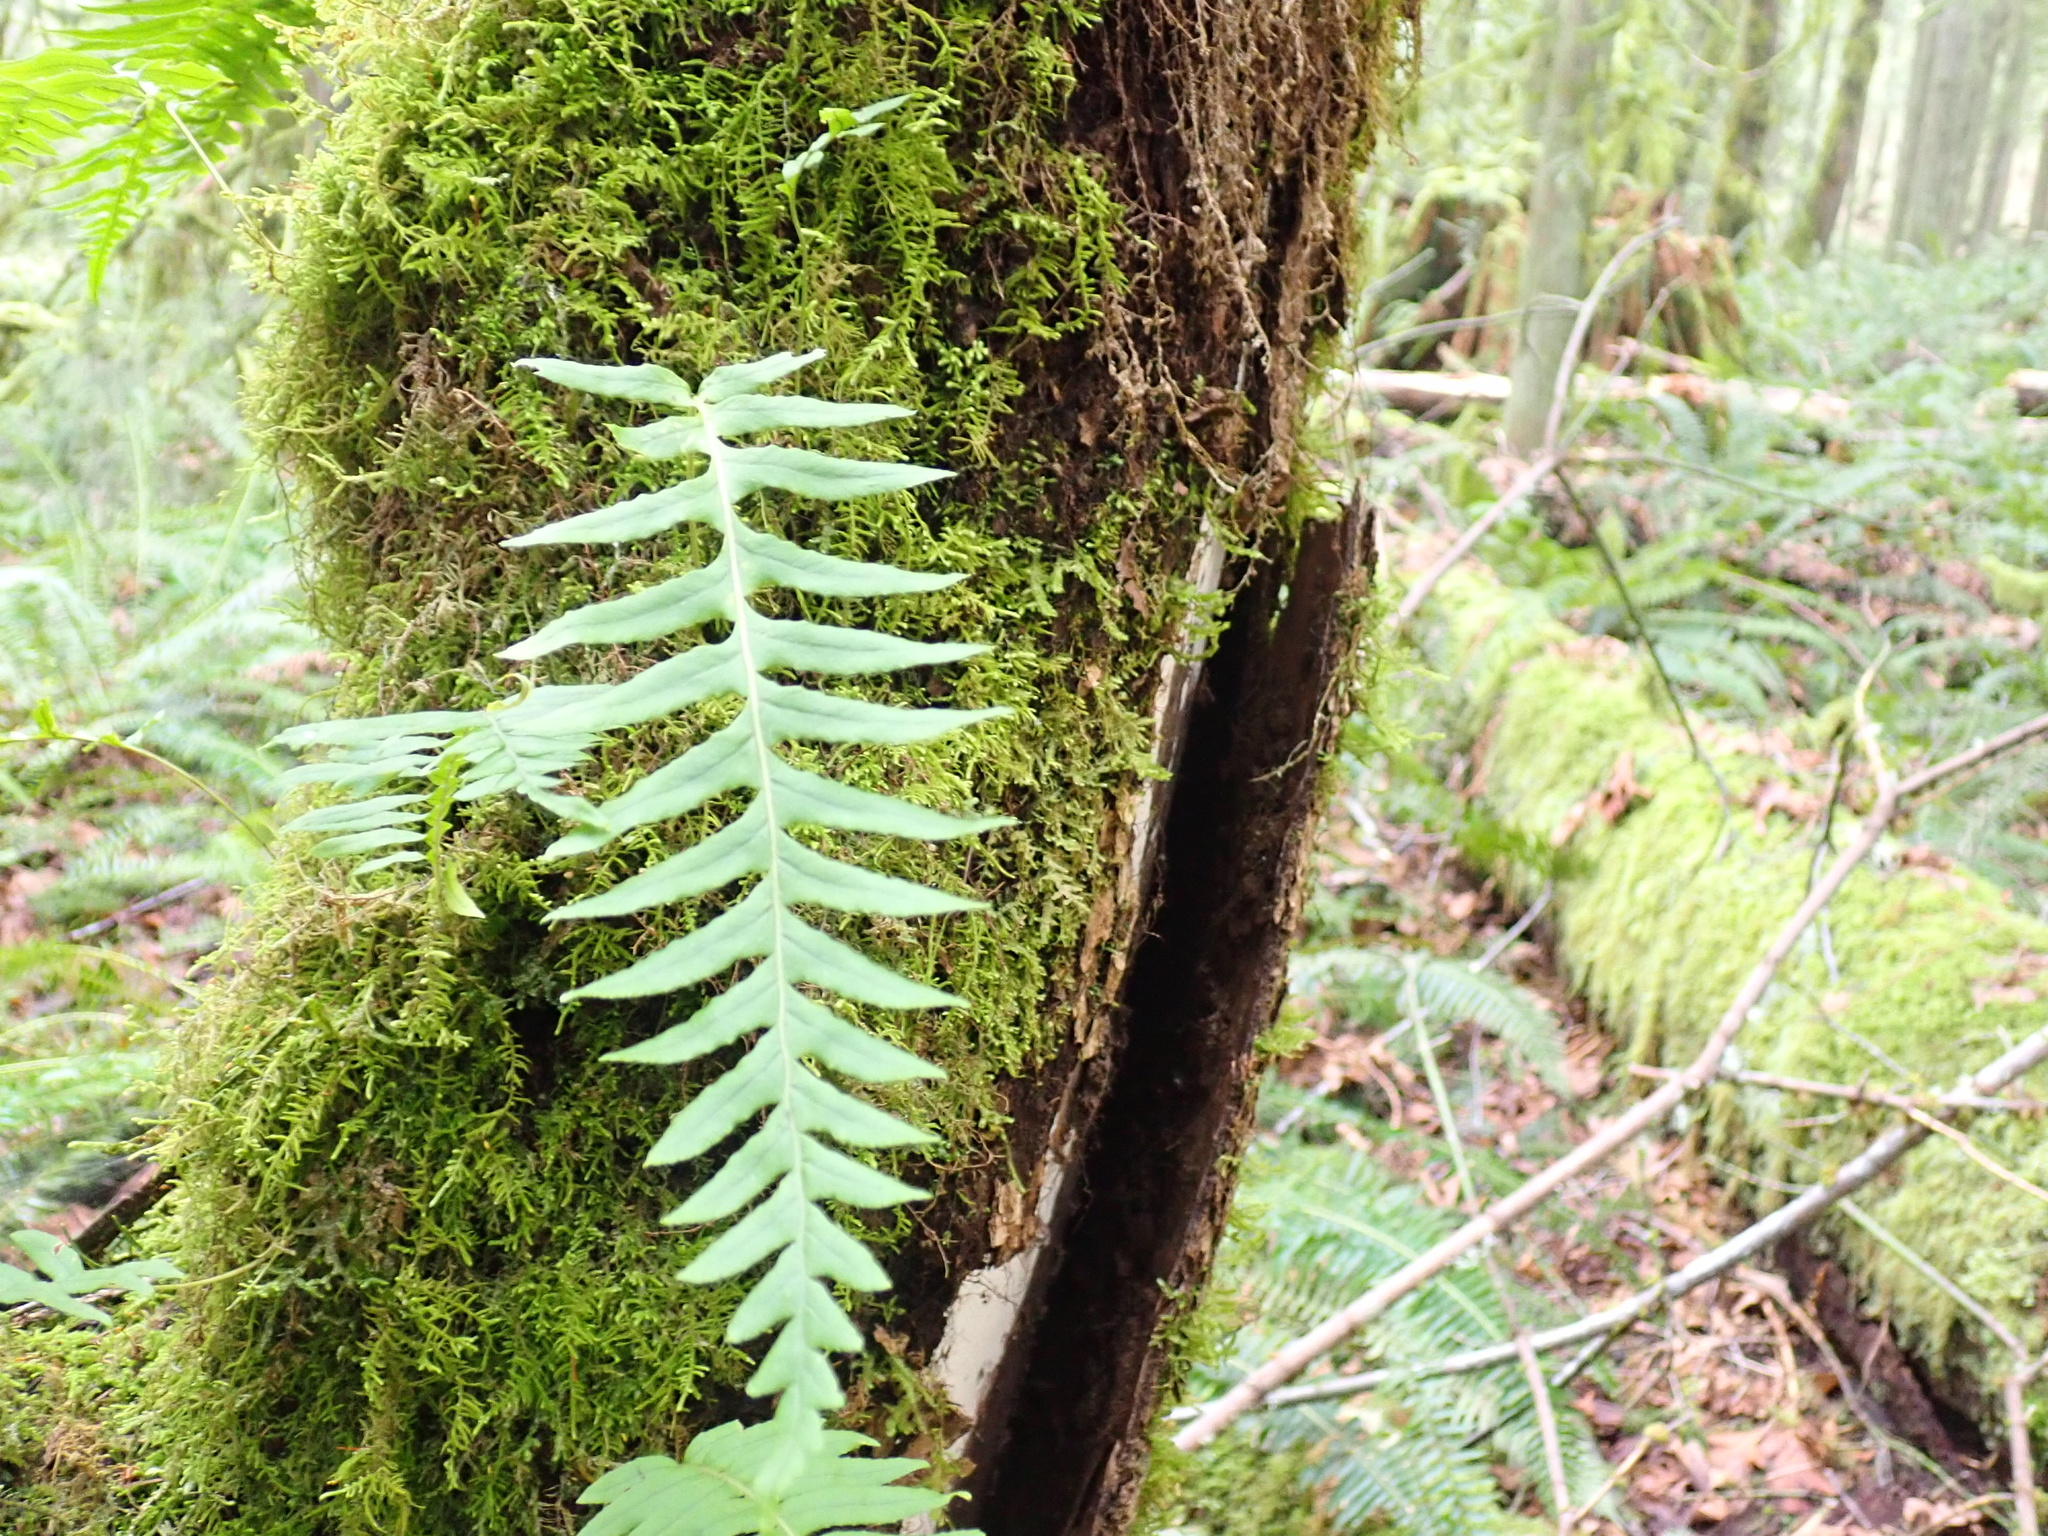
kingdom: Plantae
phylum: Tracheophyta
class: Polypodiopsida
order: Polypodiales
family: Polypodiaceae
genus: Polypodium
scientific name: Polypodium glycyrrhiza
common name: Licorice fern
